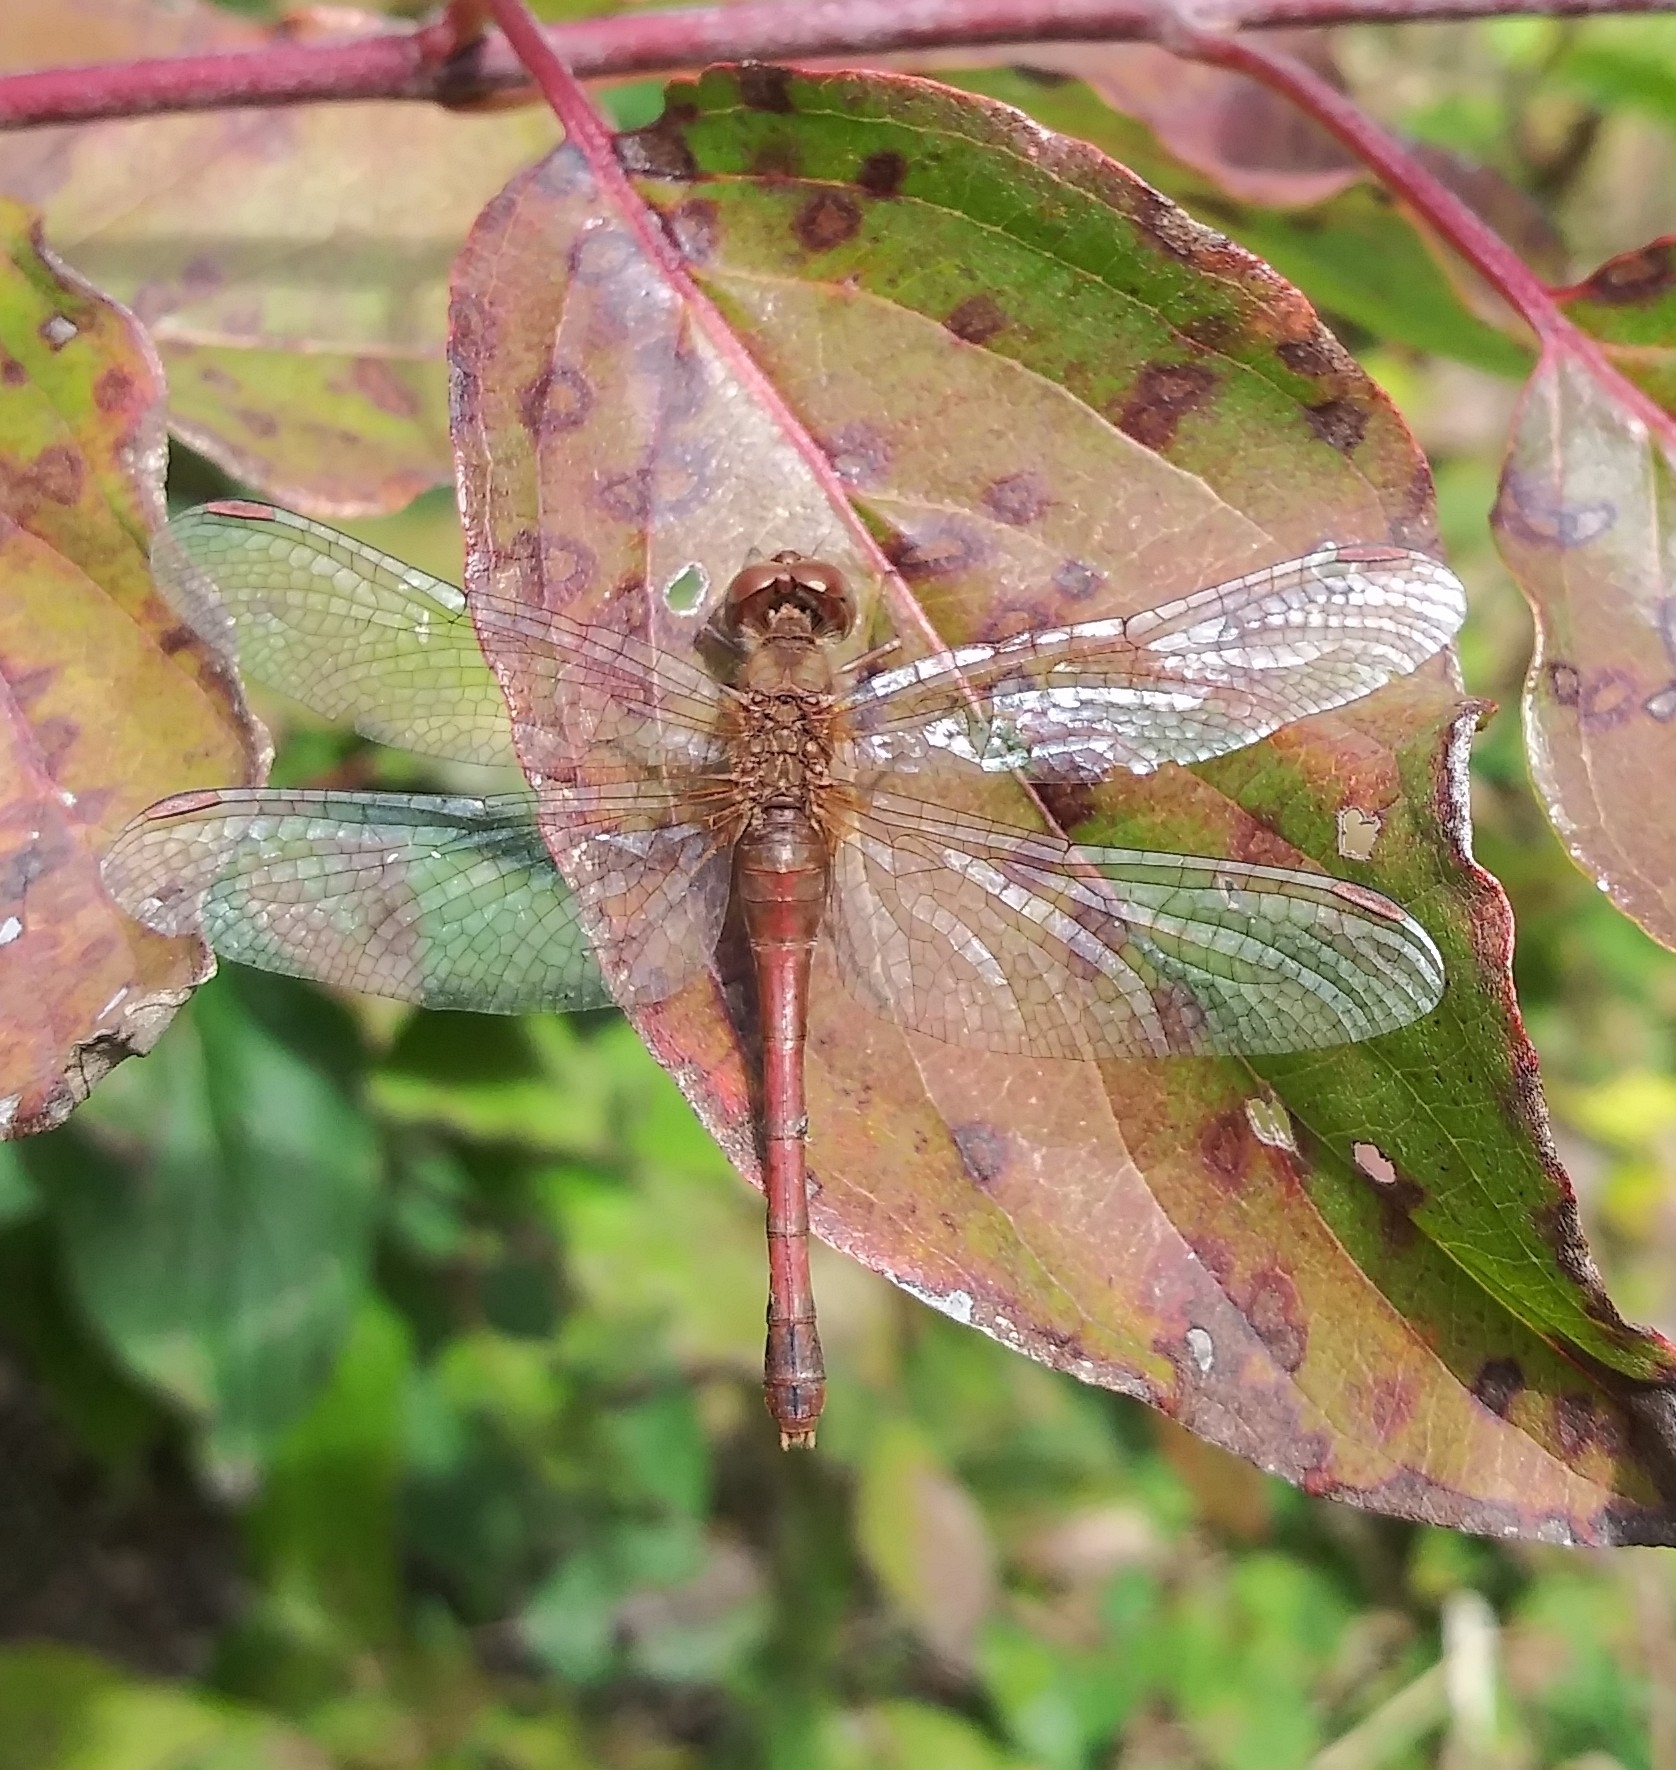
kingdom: Animalia
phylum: Arthropoda
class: Insecta
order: Odonata
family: Libellulidae
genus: Sympetrum
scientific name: Sympetrum vicinum
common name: Autumn meadowhawk
